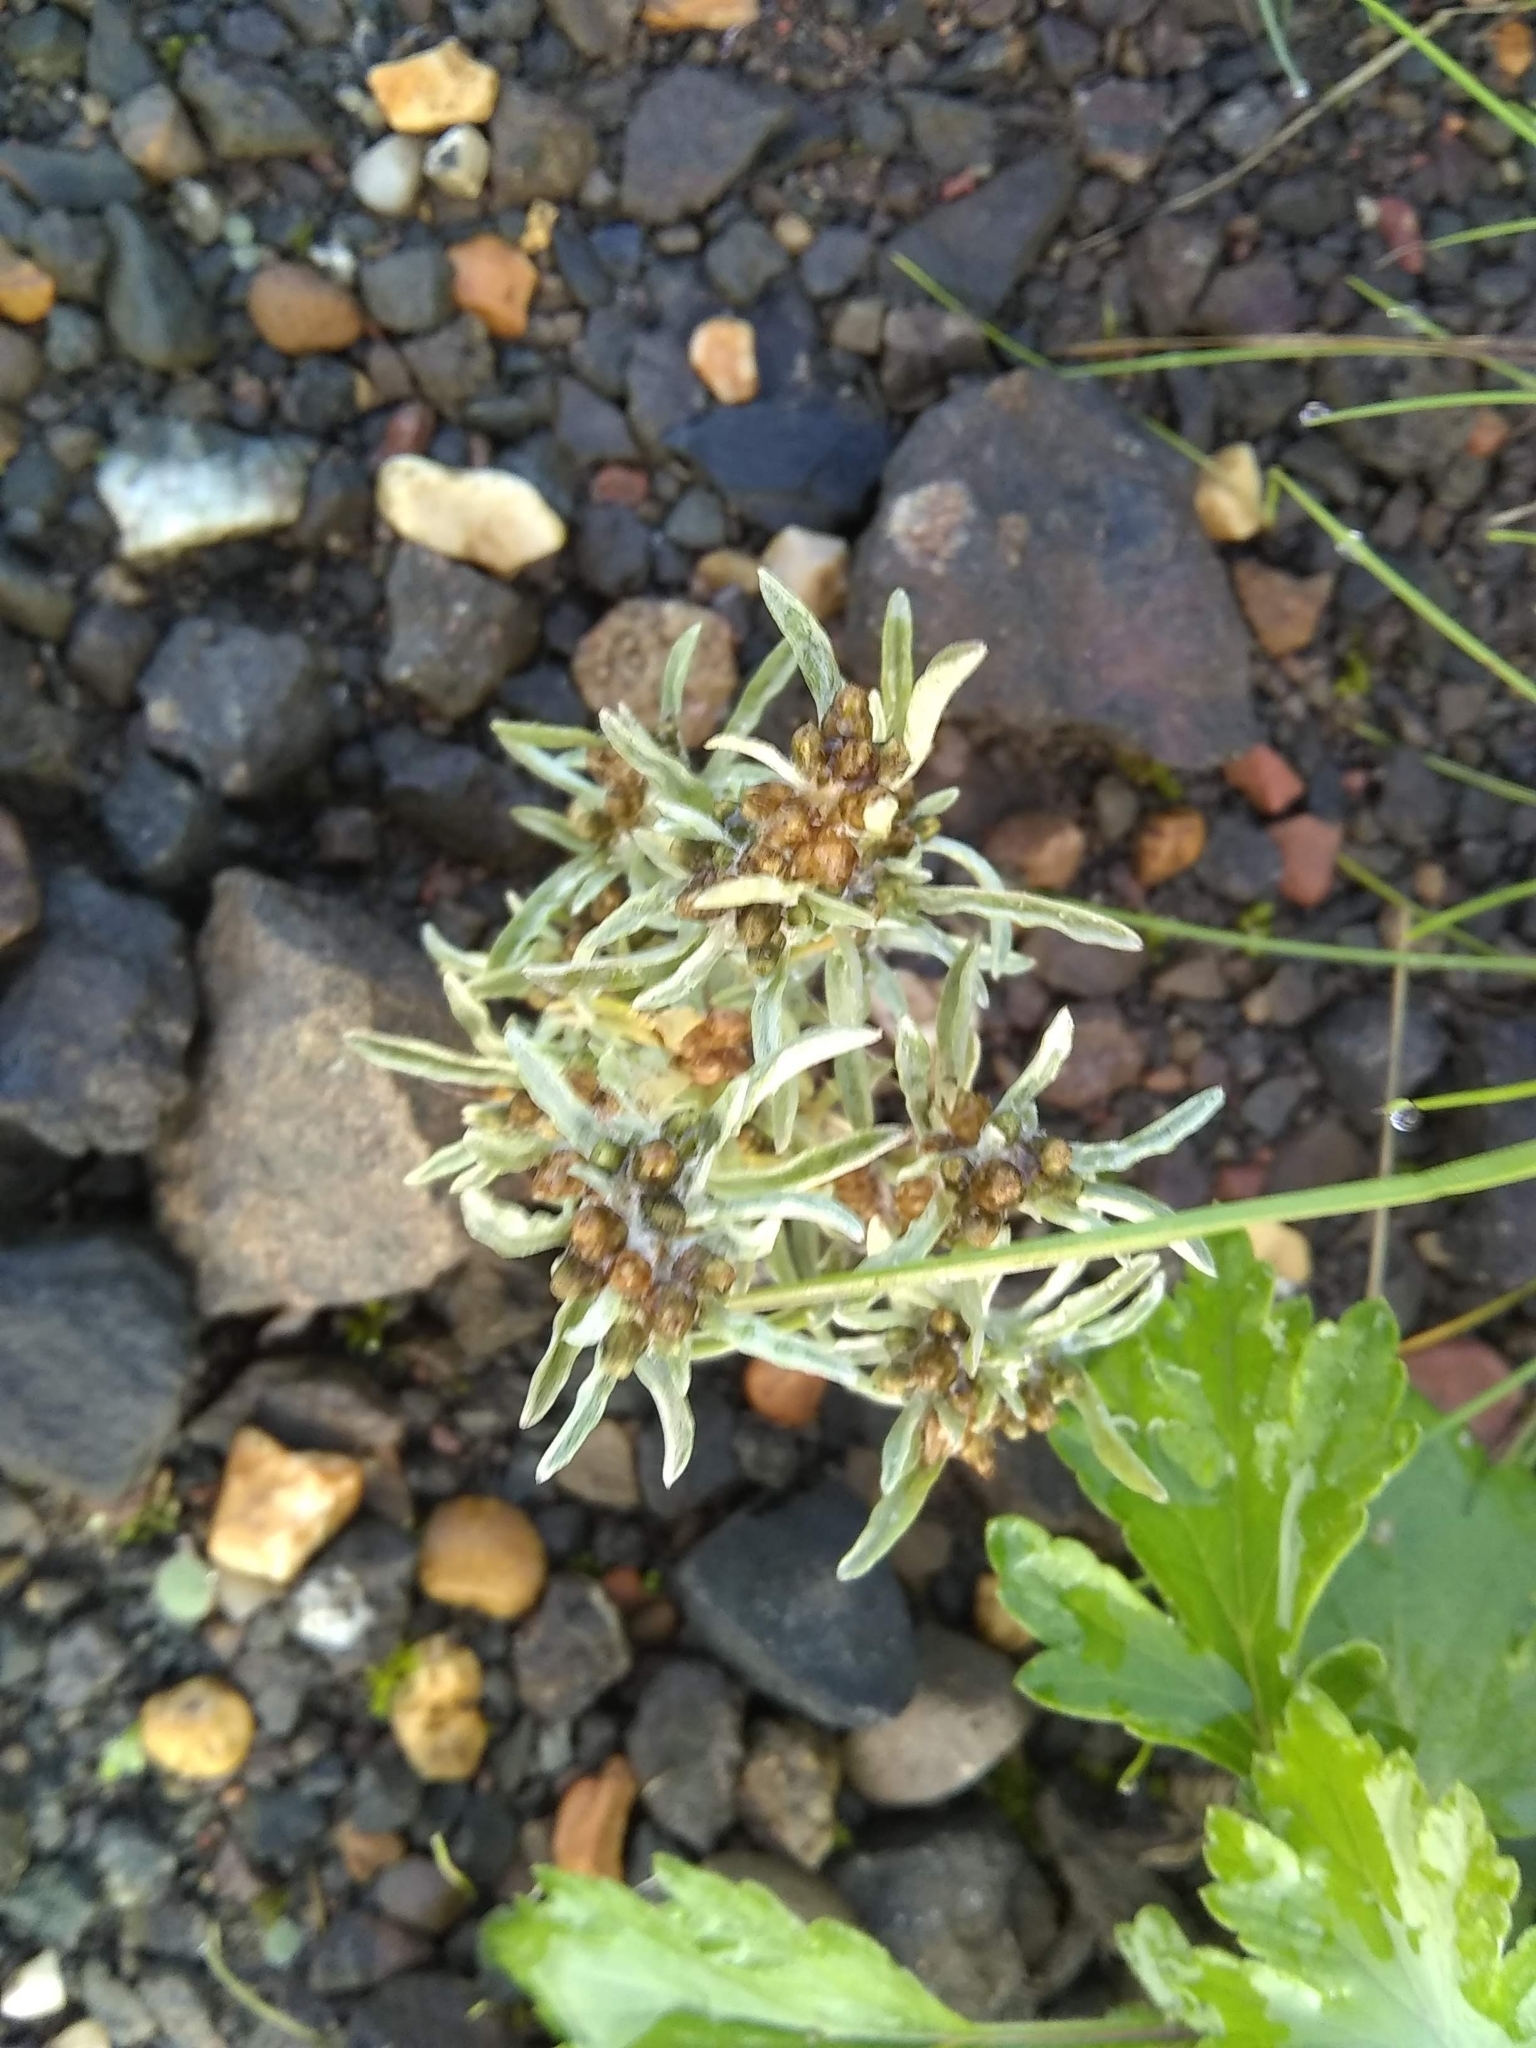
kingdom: Plantae
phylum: Tracheophyta
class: Magnoliopsida
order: Asterales
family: Asteraceae
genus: Gnaphalium
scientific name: Gnaphalium uliginosum
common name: Marsh cudweed
